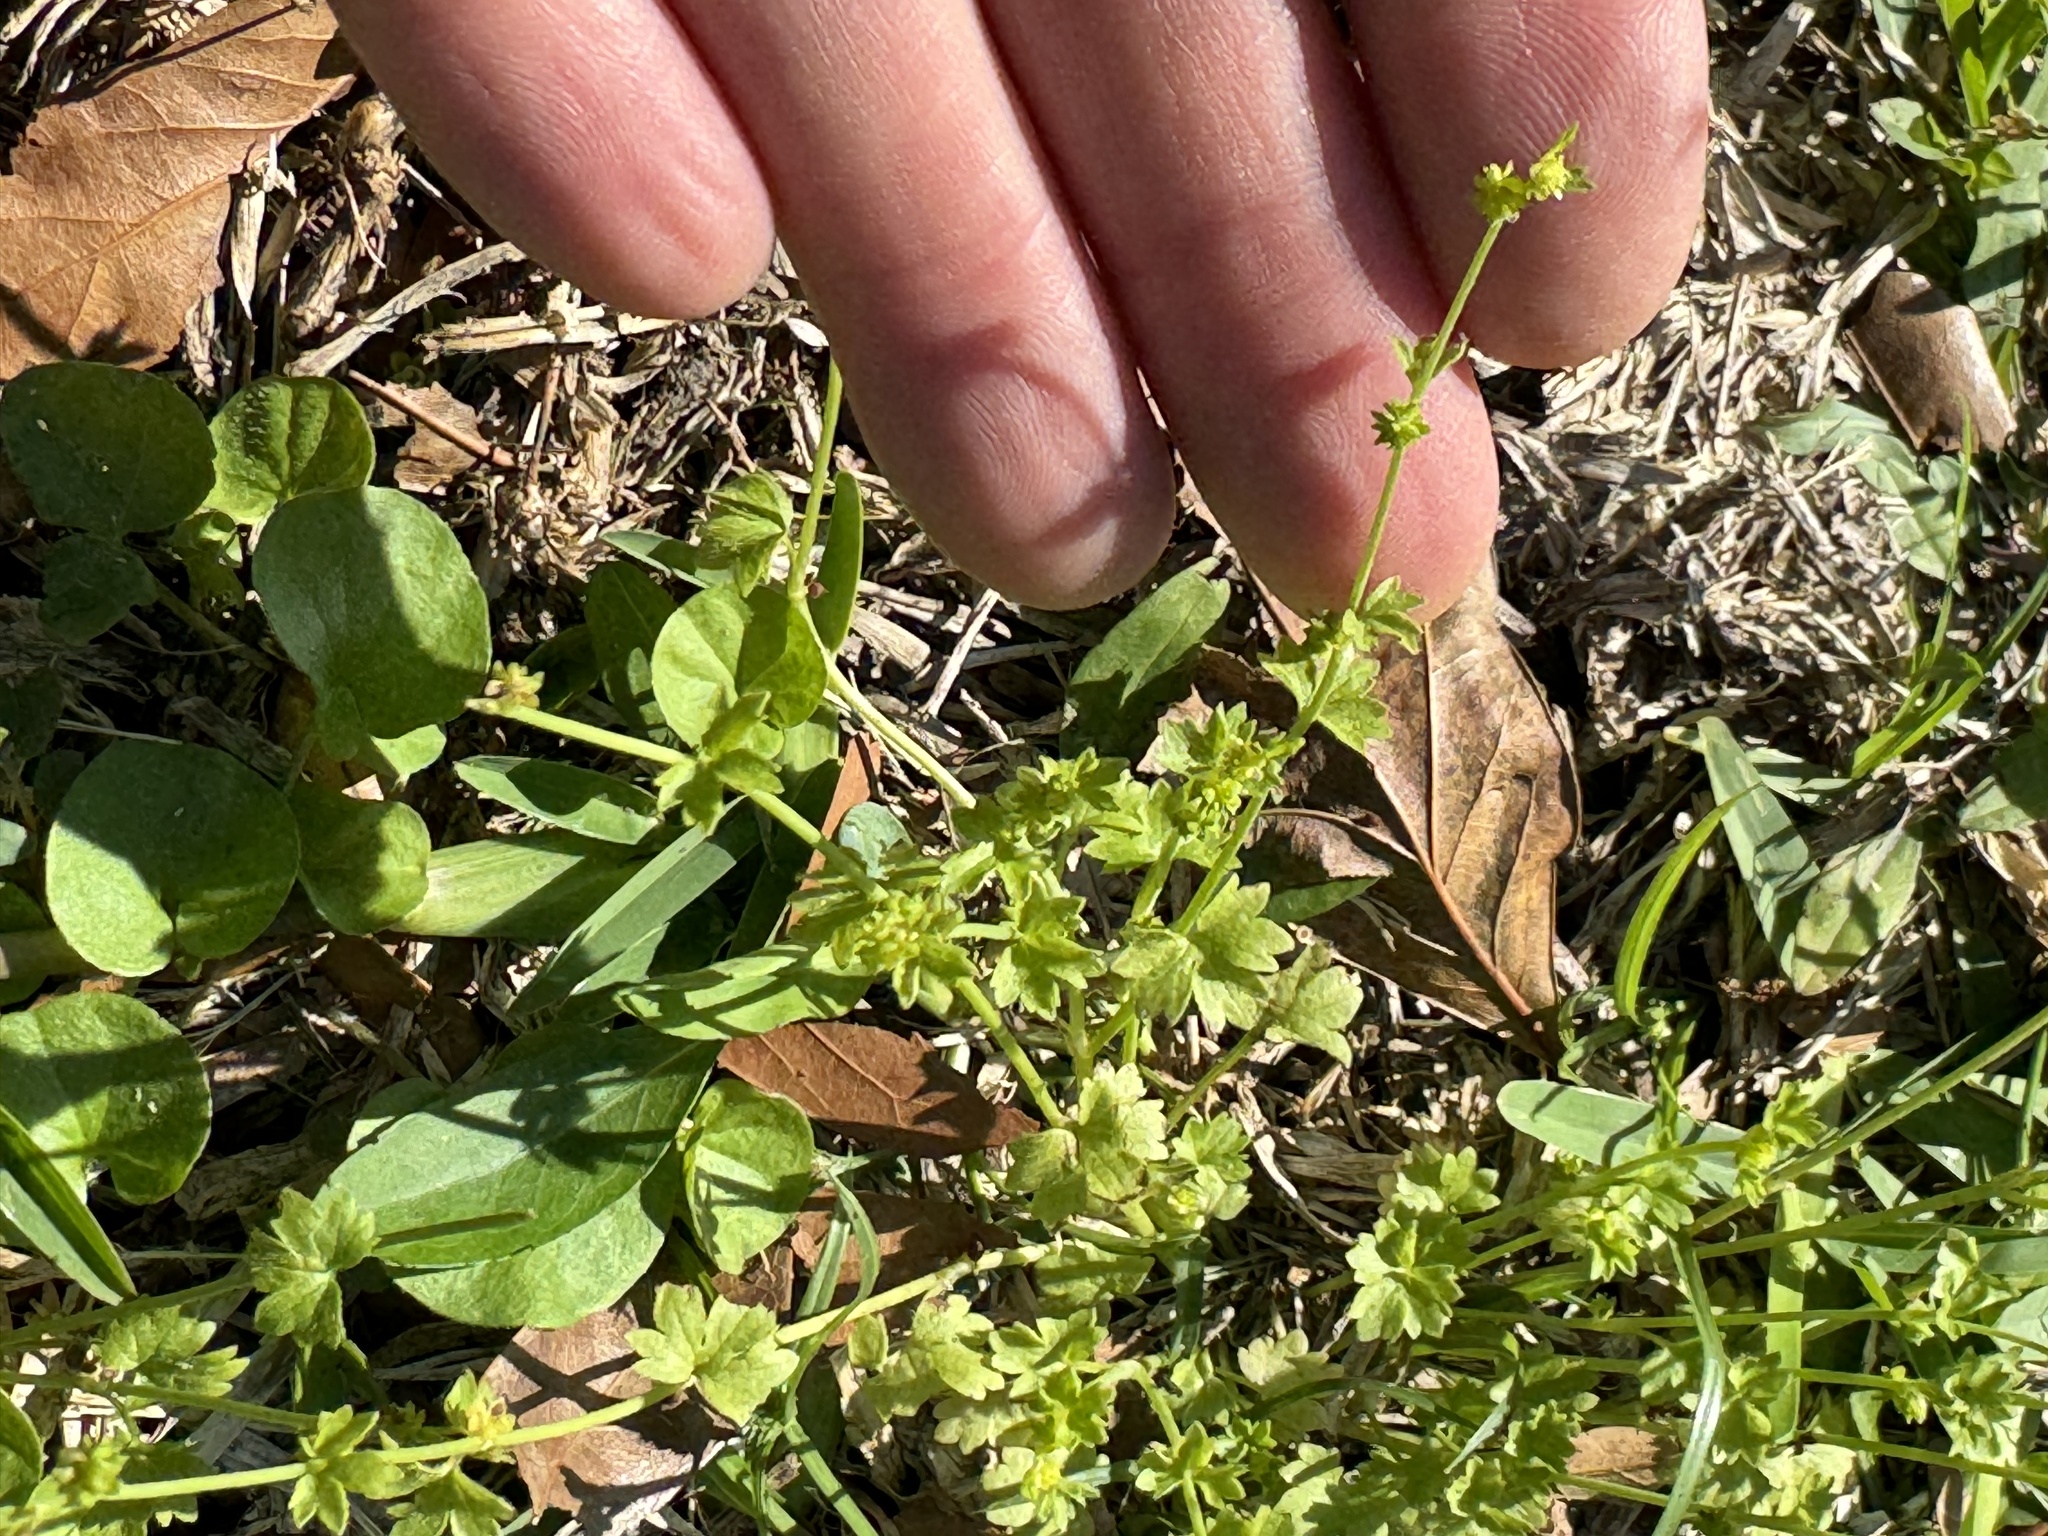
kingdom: Plantae
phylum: Tracheophyta
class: Magnoliopsida
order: Ranunculales
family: Ranunculaceae
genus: Ranunculus
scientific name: Ranunculus platensis
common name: Prairie buttercup
